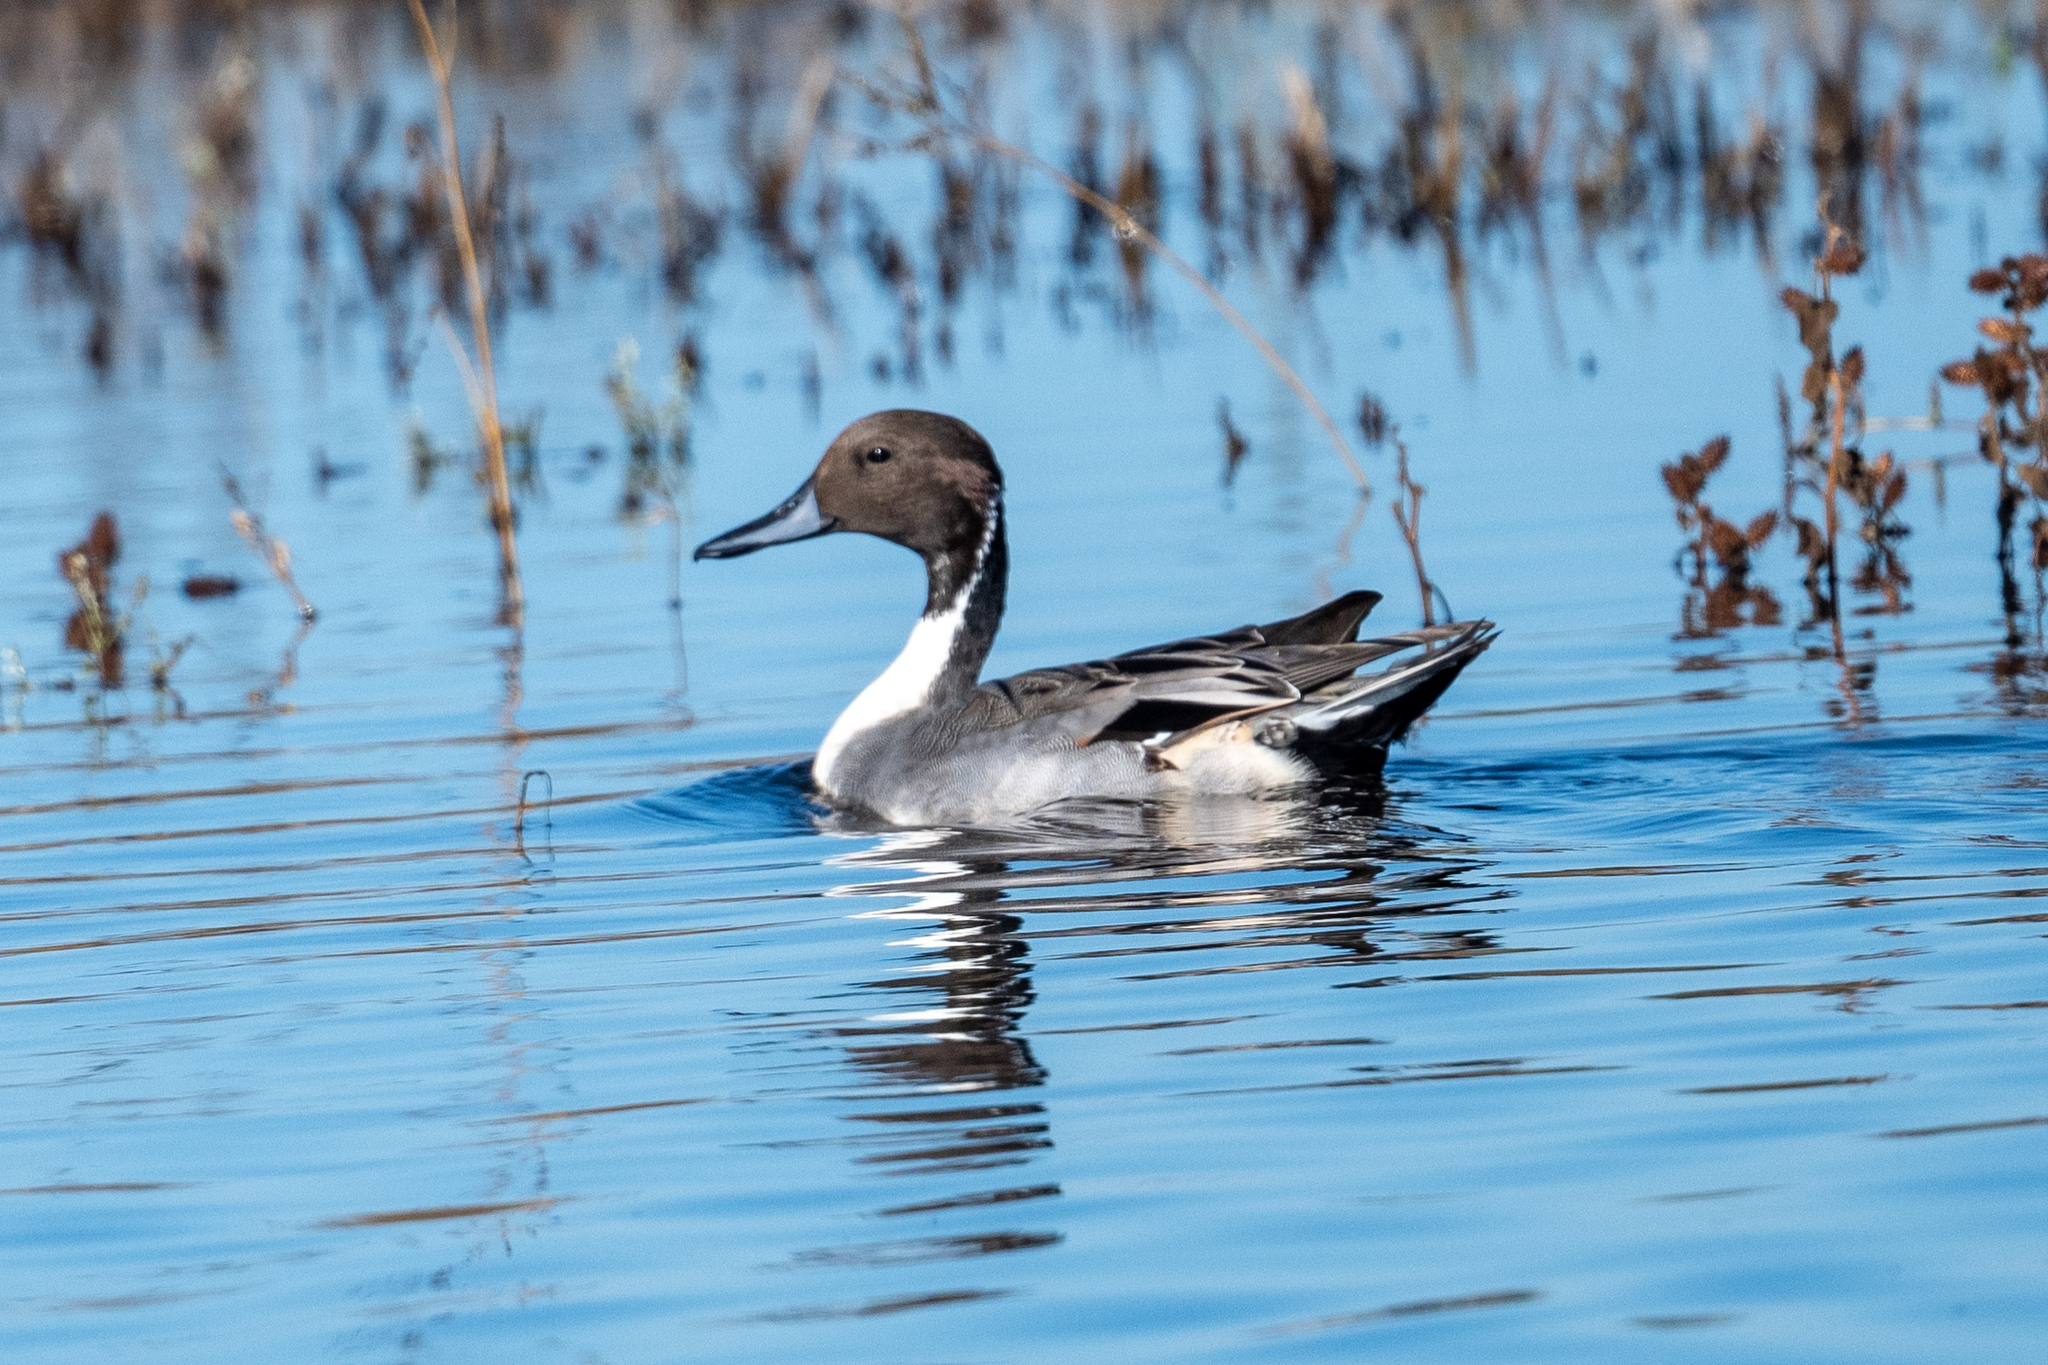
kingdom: Animalia
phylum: Chordata
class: Aves
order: Anseriformes
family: Anatidae
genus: Anas
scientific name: Anas acuta
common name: Northern pintail
